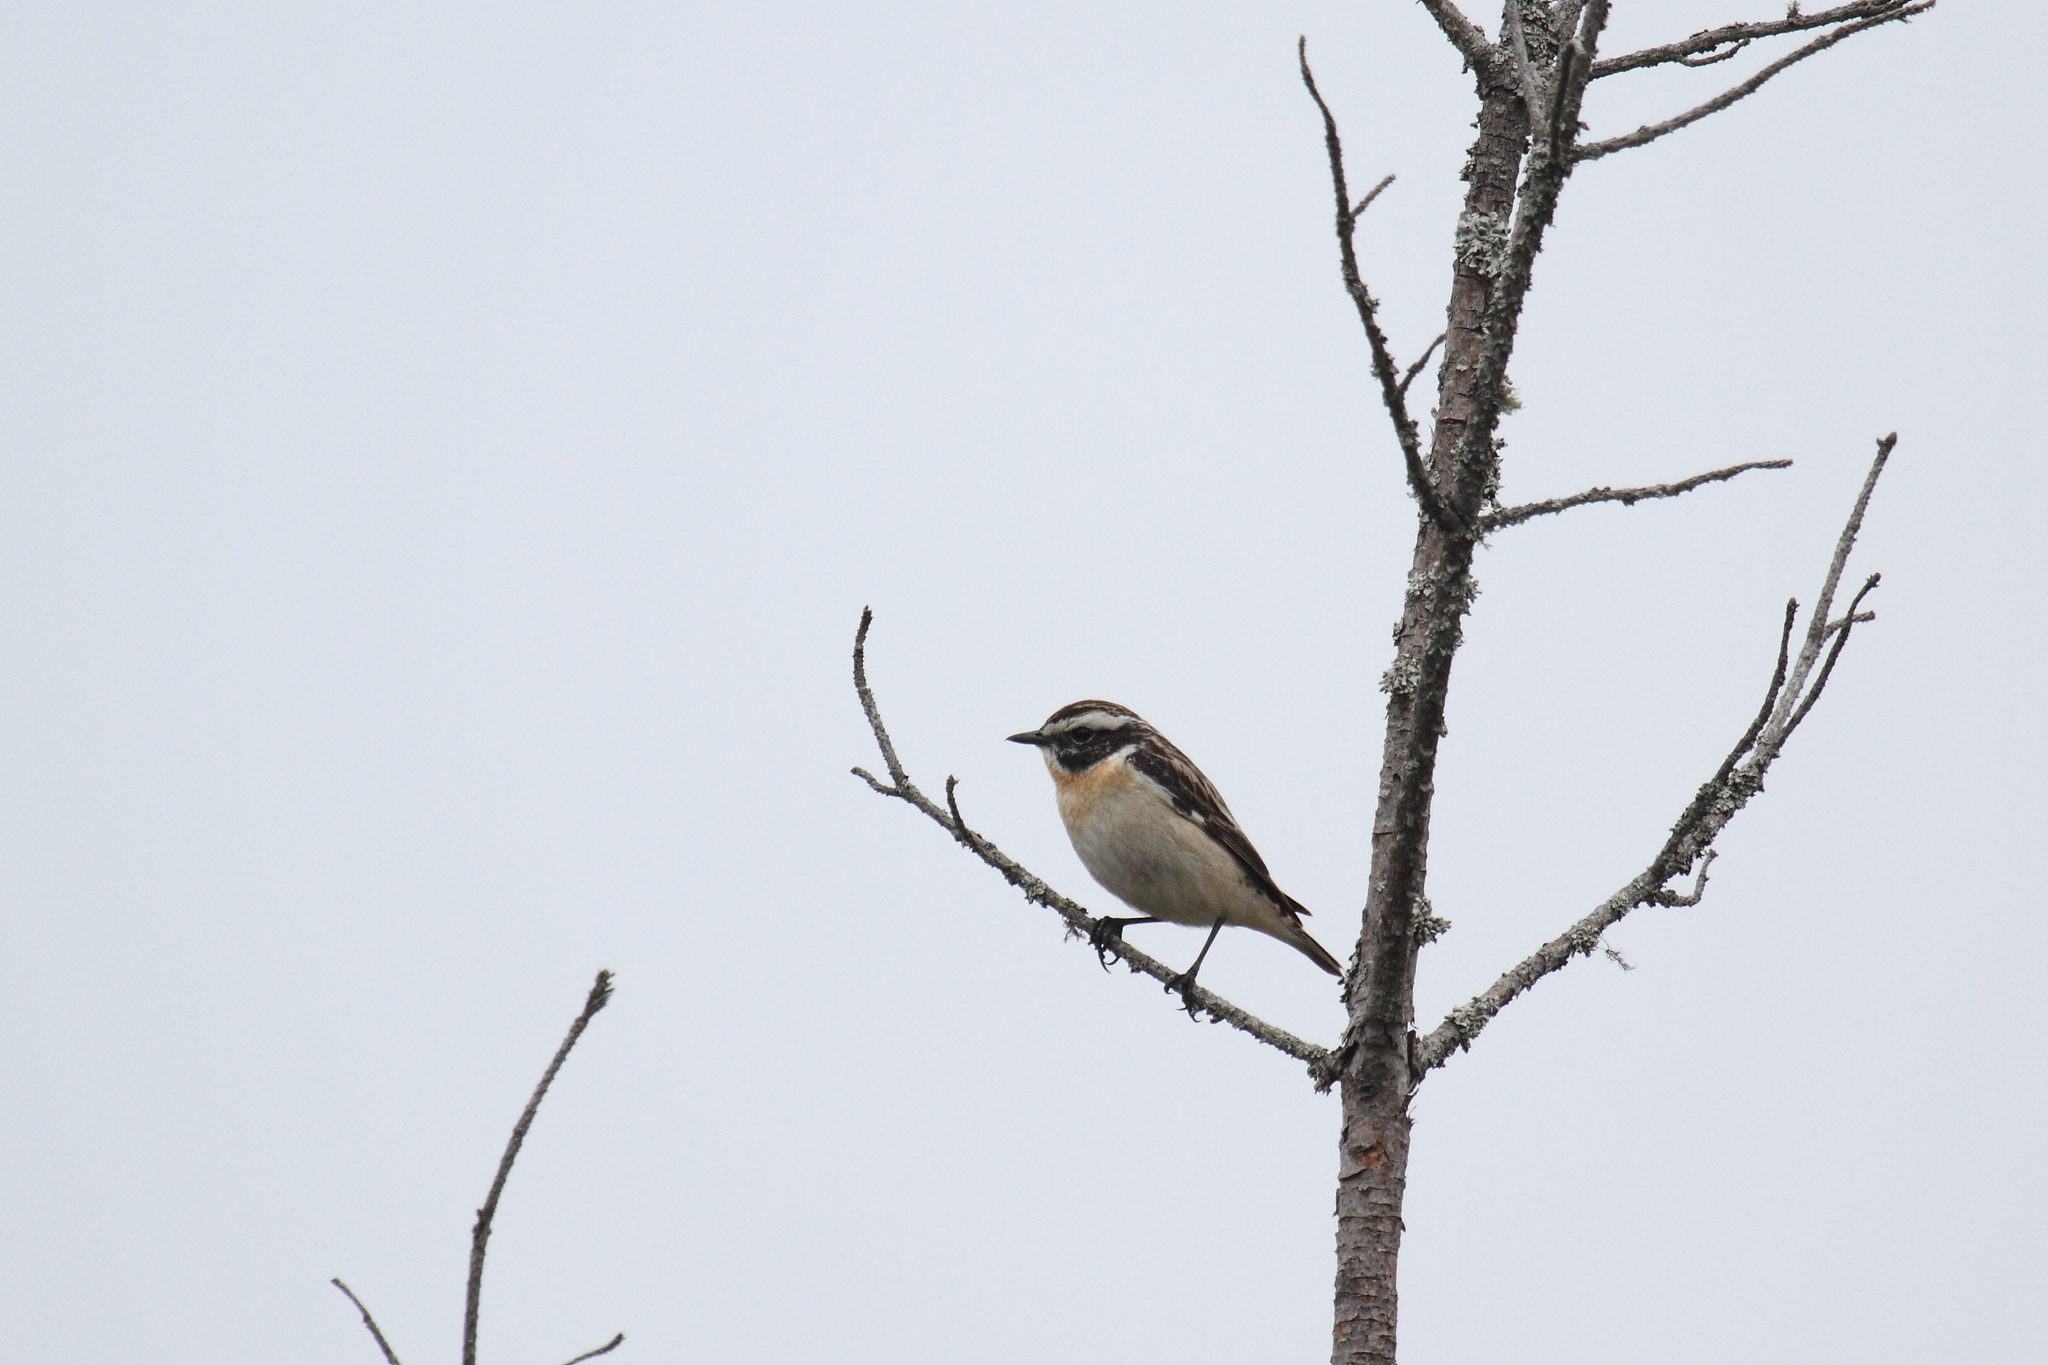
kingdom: Animalia
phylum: Chordata
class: Aves
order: Passeriformes
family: Muscicapidae
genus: Saxicola
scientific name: Saxicola rubetra
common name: Whinchat
